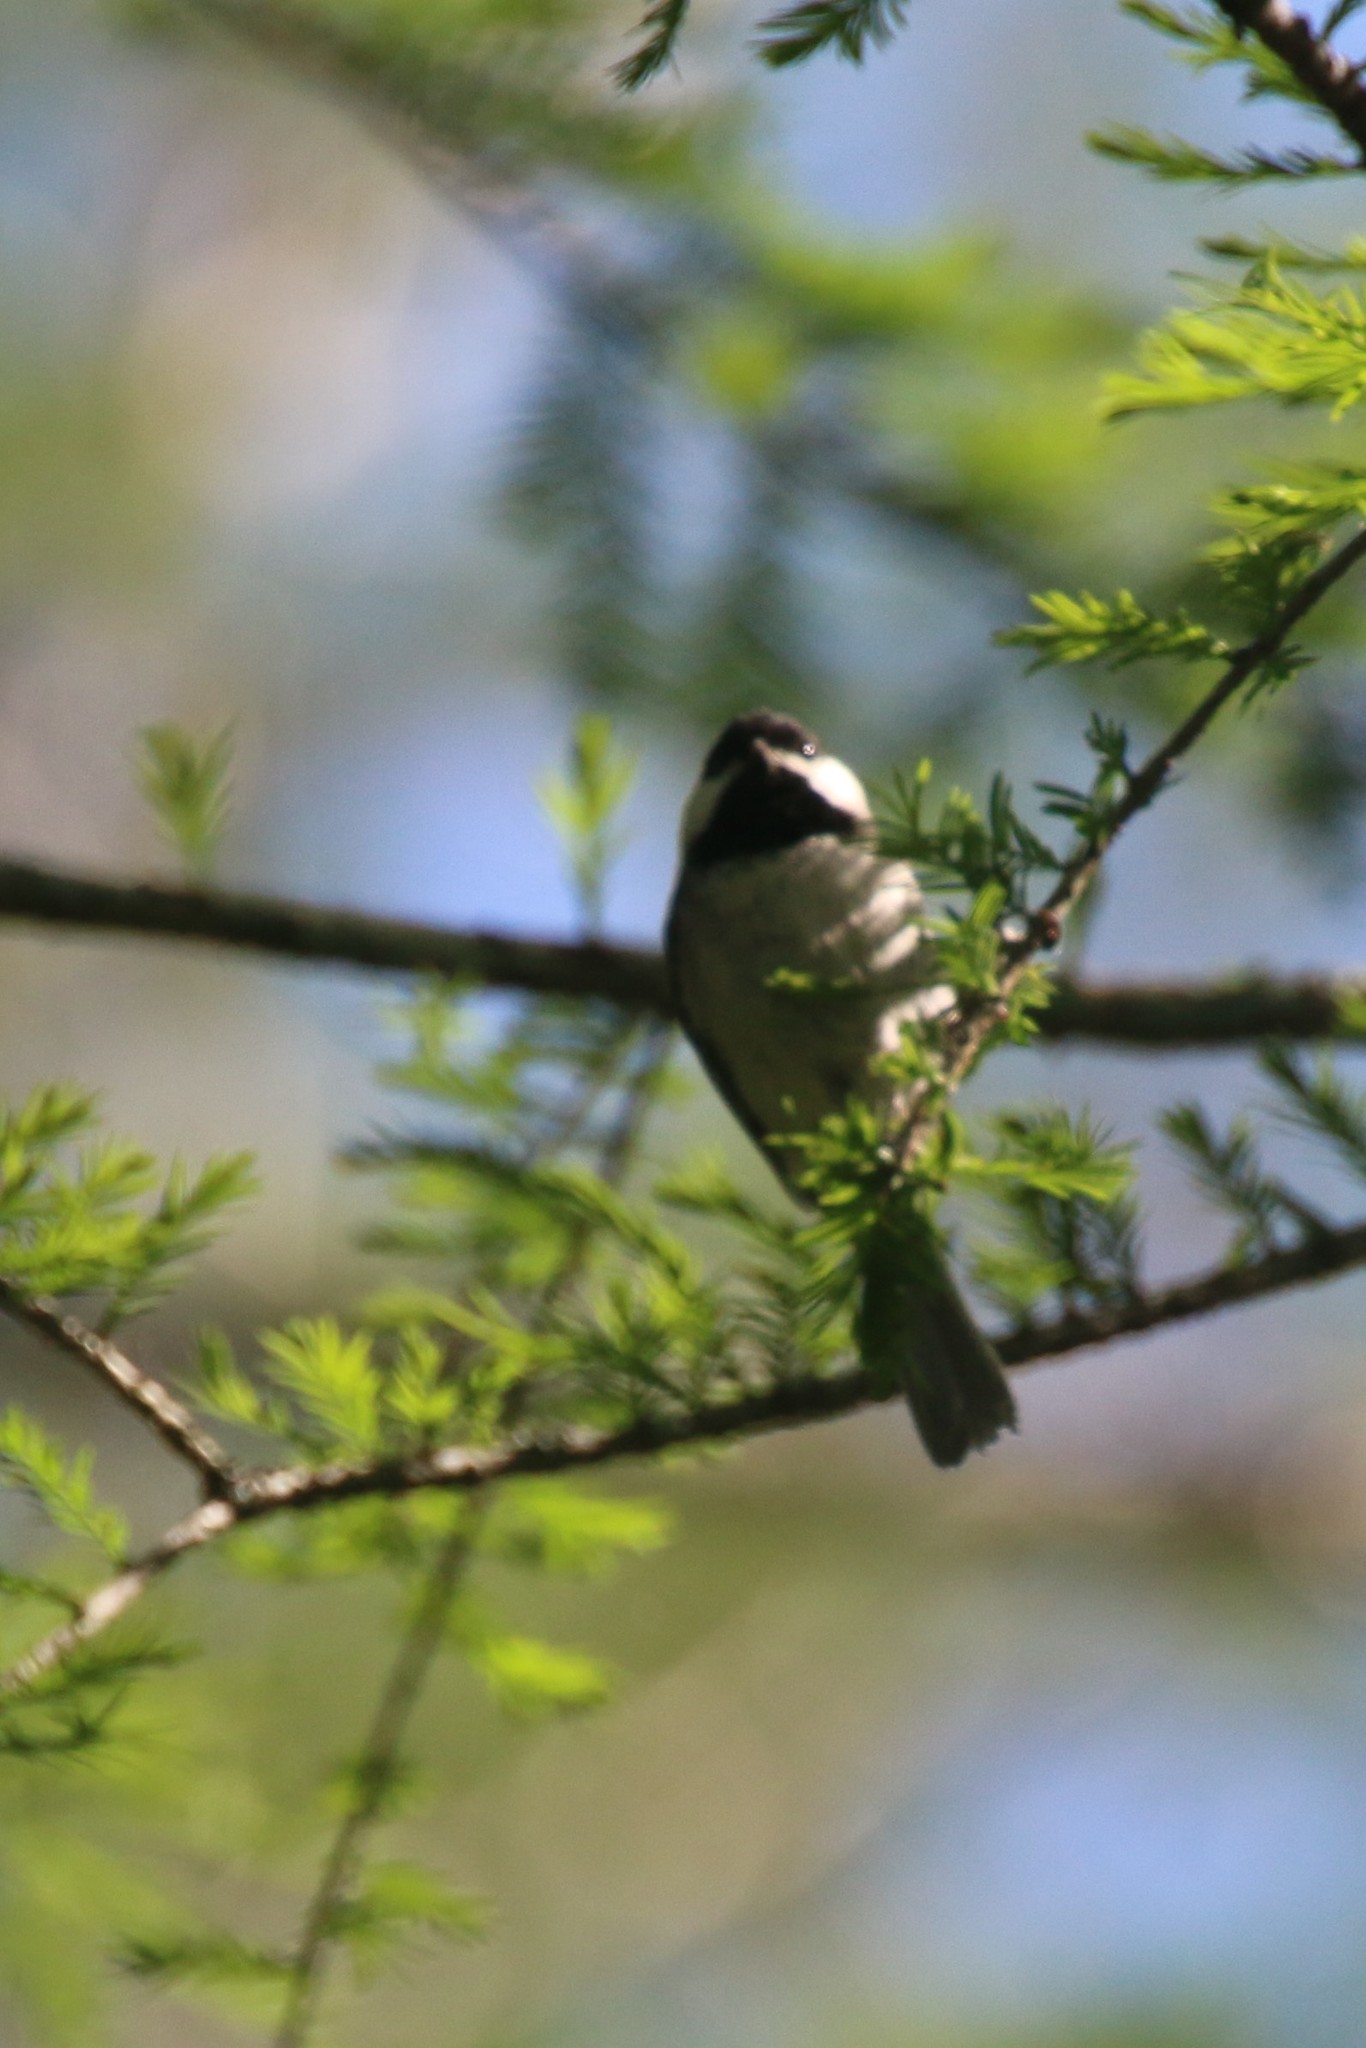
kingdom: Animalia
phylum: Chordata
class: Aves
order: Passeriformes
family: Paridae
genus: Poecile
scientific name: Poecile carolinensis
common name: Carolina chickadee
